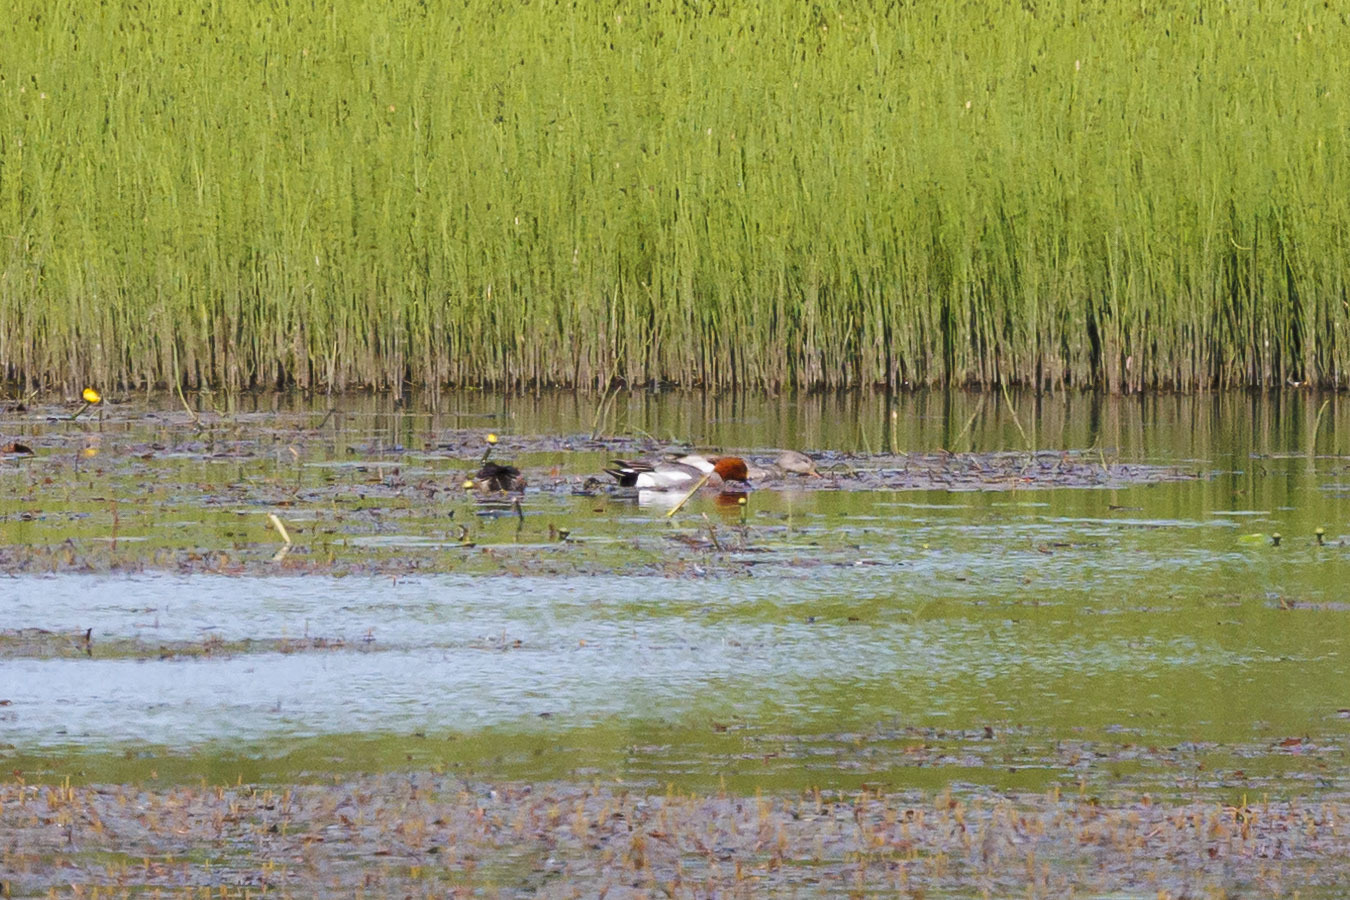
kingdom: Animalia
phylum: Chordata
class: Aves
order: Anseriformes
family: Anatidae
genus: Mareca
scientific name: Mareca penelope
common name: Eurasian wigeon
